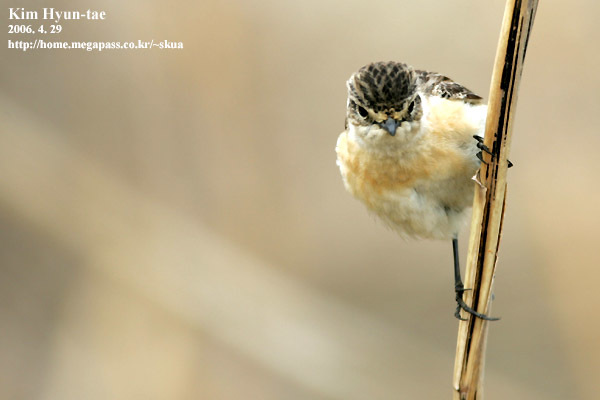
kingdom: Animalia
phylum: Chordata
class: Aves
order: Passeriformes
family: Muscicapidae
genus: Saxicola
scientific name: Saxicola stejnegeri
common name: Stejneger's stonechat
